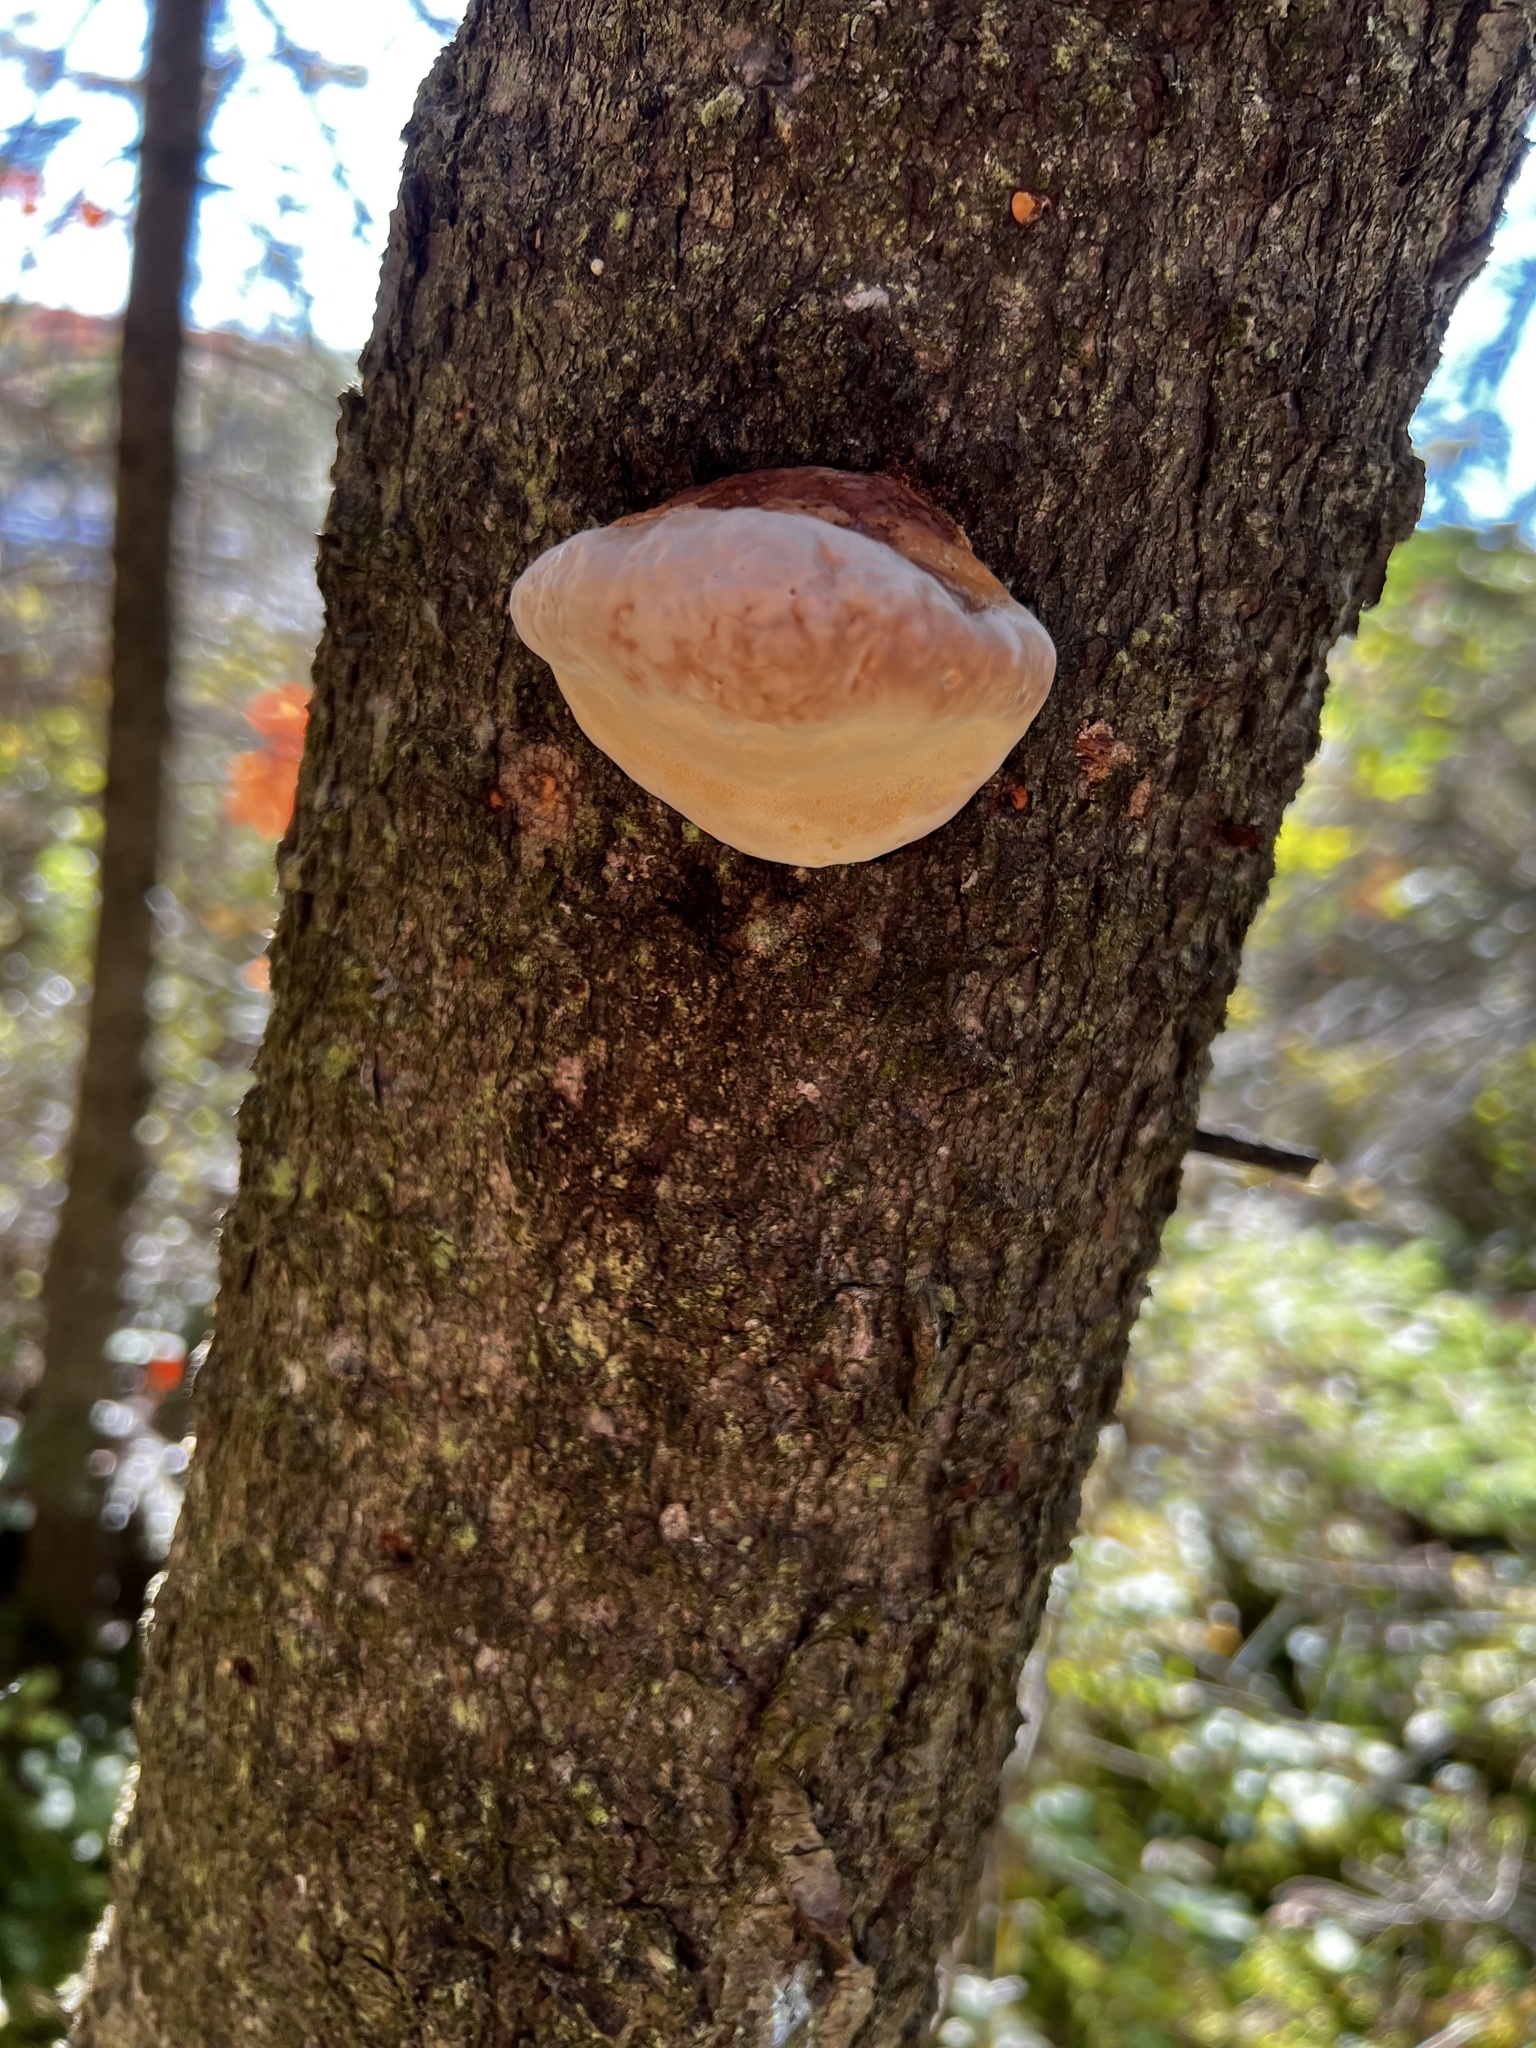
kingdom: Fungi
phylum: Basidiomycota
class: Agaricomycetes
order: Polyporales
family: Fomitopsidaceae
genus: Fomitopsis
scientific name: Fomitopsis mounceae
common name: Northern red belt
